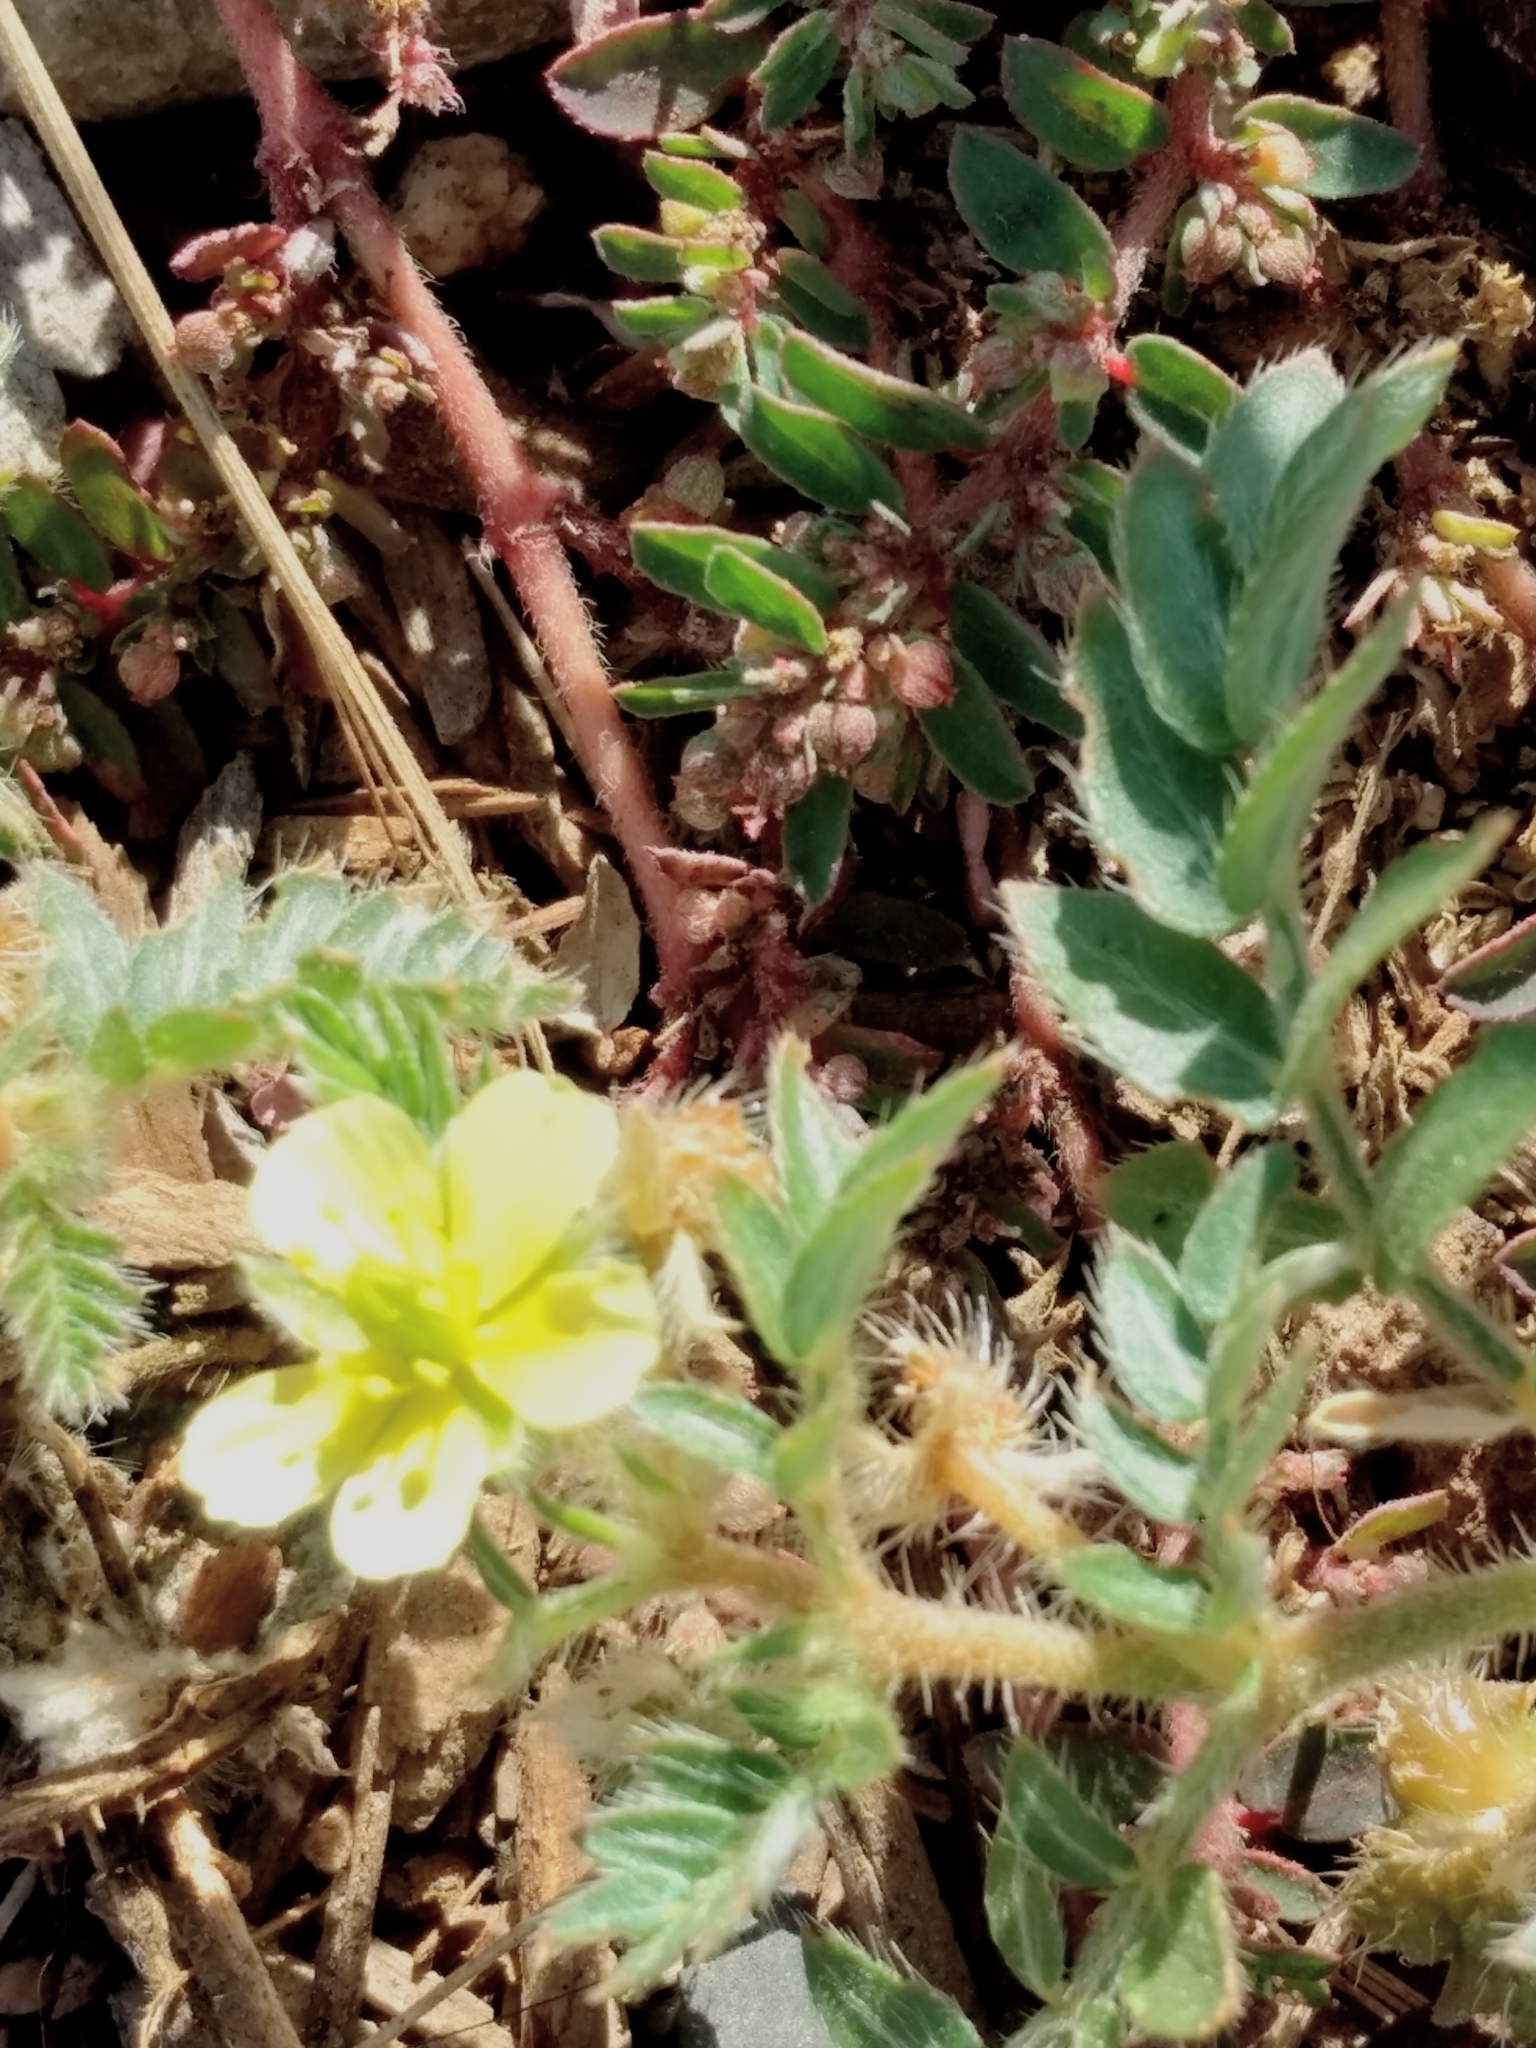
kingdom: Plantae
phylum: Tracheophyta
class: Magnoliopsida
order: Zygophyllales
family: Zygophyllaceae
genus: Tribulus
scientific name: Tribulus terrestris
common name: Puncturevine
